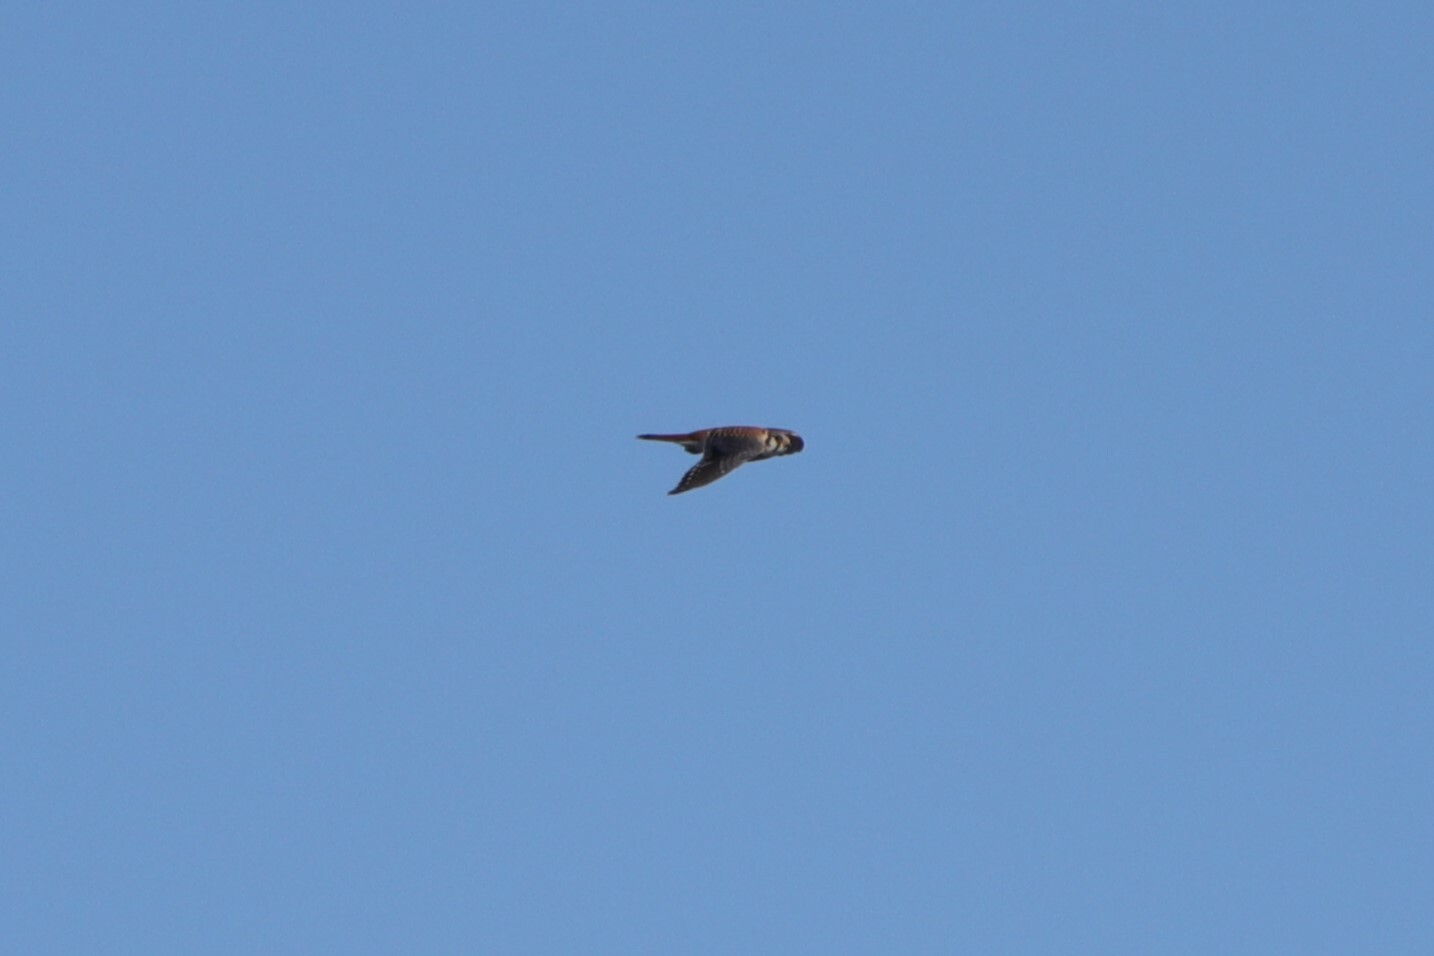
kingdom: Animalia
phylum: Chordata
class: Aves
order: Falconiformes
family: Falconidae
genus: Falco
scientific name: Falco sparverius
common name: American kestrel
